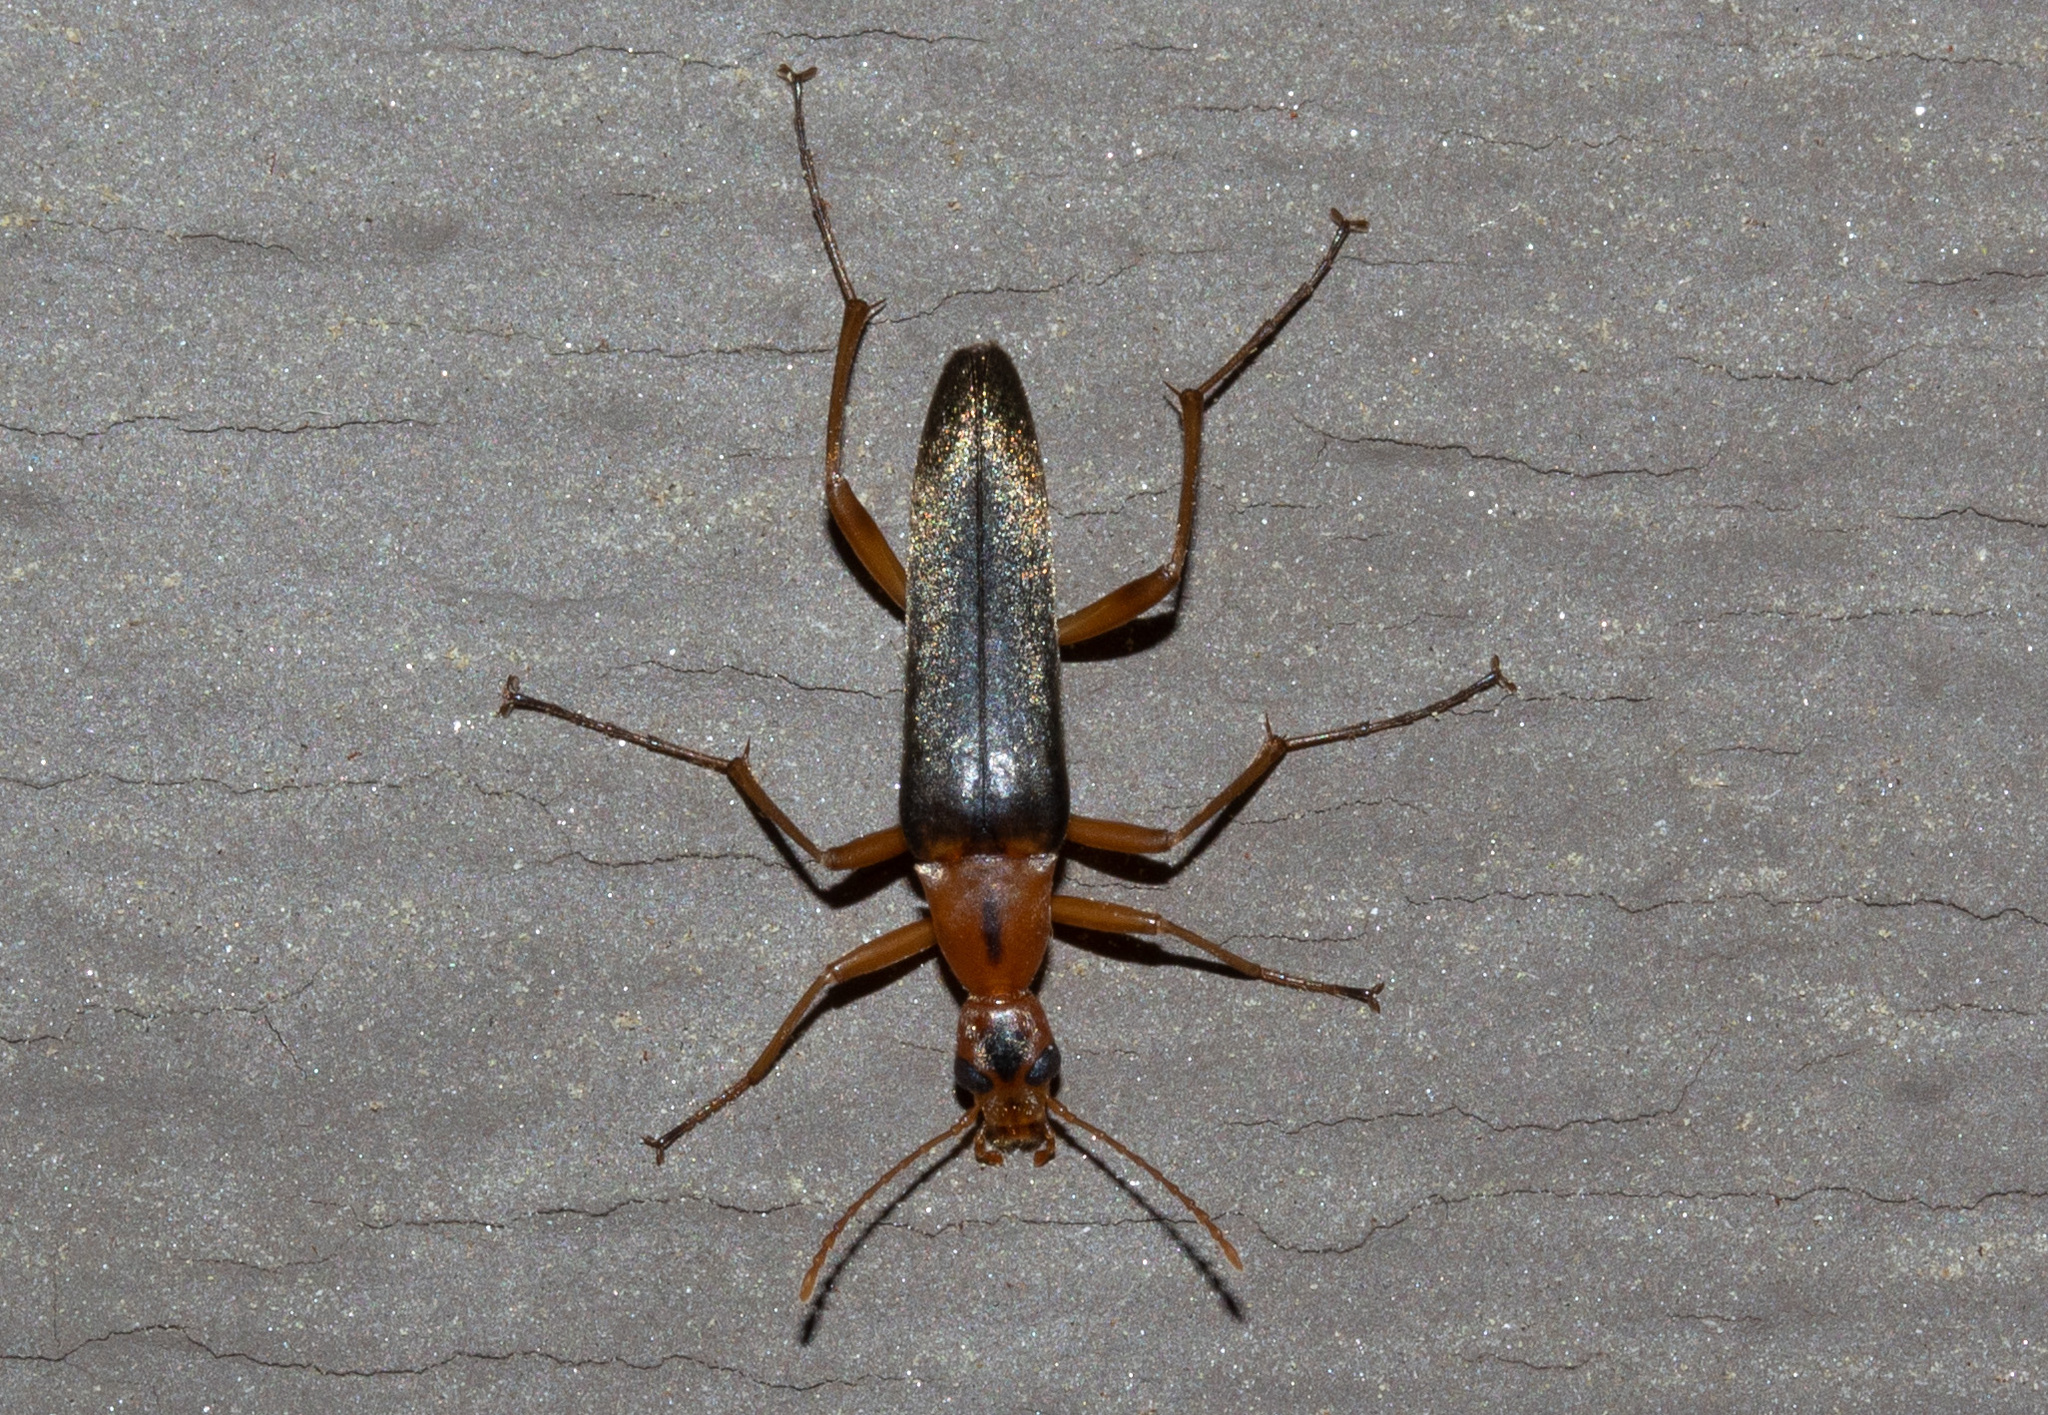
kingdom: Animalia
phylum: Arthropoda
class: Insecta
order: Coleoptera
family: Stenotrachelidae
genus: Cephaloon
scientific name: Cephaloon lepturides
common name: False leptura beetle
